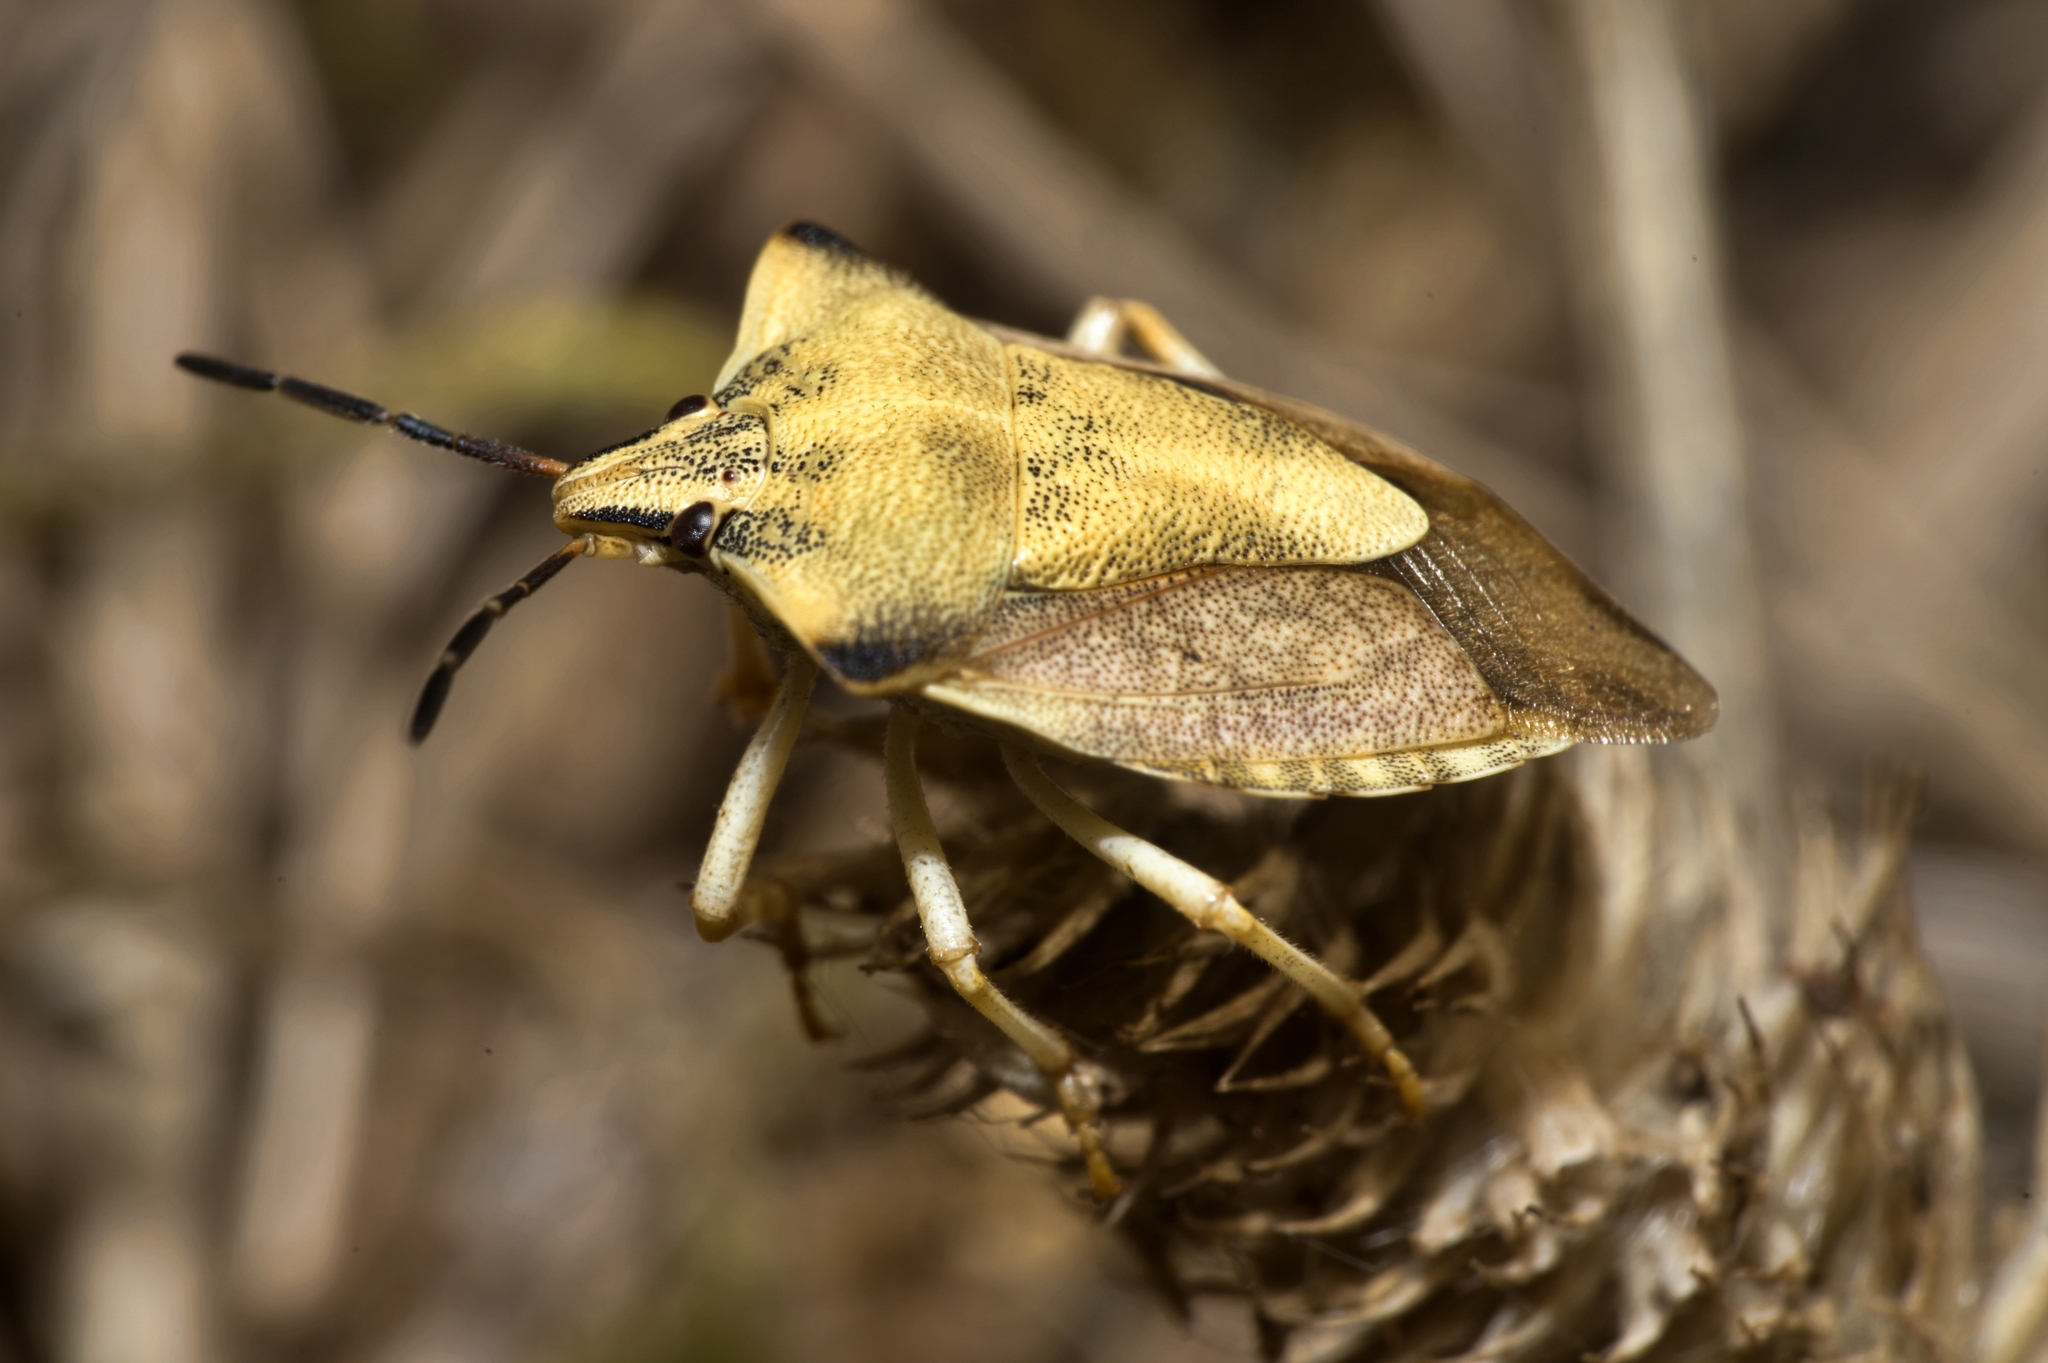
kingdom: Animalia
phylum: Arthropoda
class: Insecta
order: Hemiptera
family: Pentatomidae
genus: Carpocoris
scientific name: Carpocoris fuscispinus
